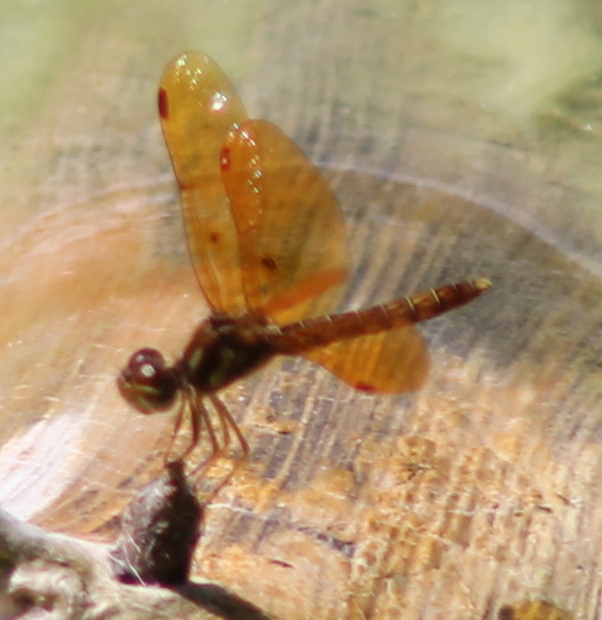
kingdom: Animalia
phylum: Arthropoda
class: Insecta
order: Odonata
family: Libellulidae
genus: Perithemis
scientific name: Perithemis tenera
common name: Eastern amberwing
